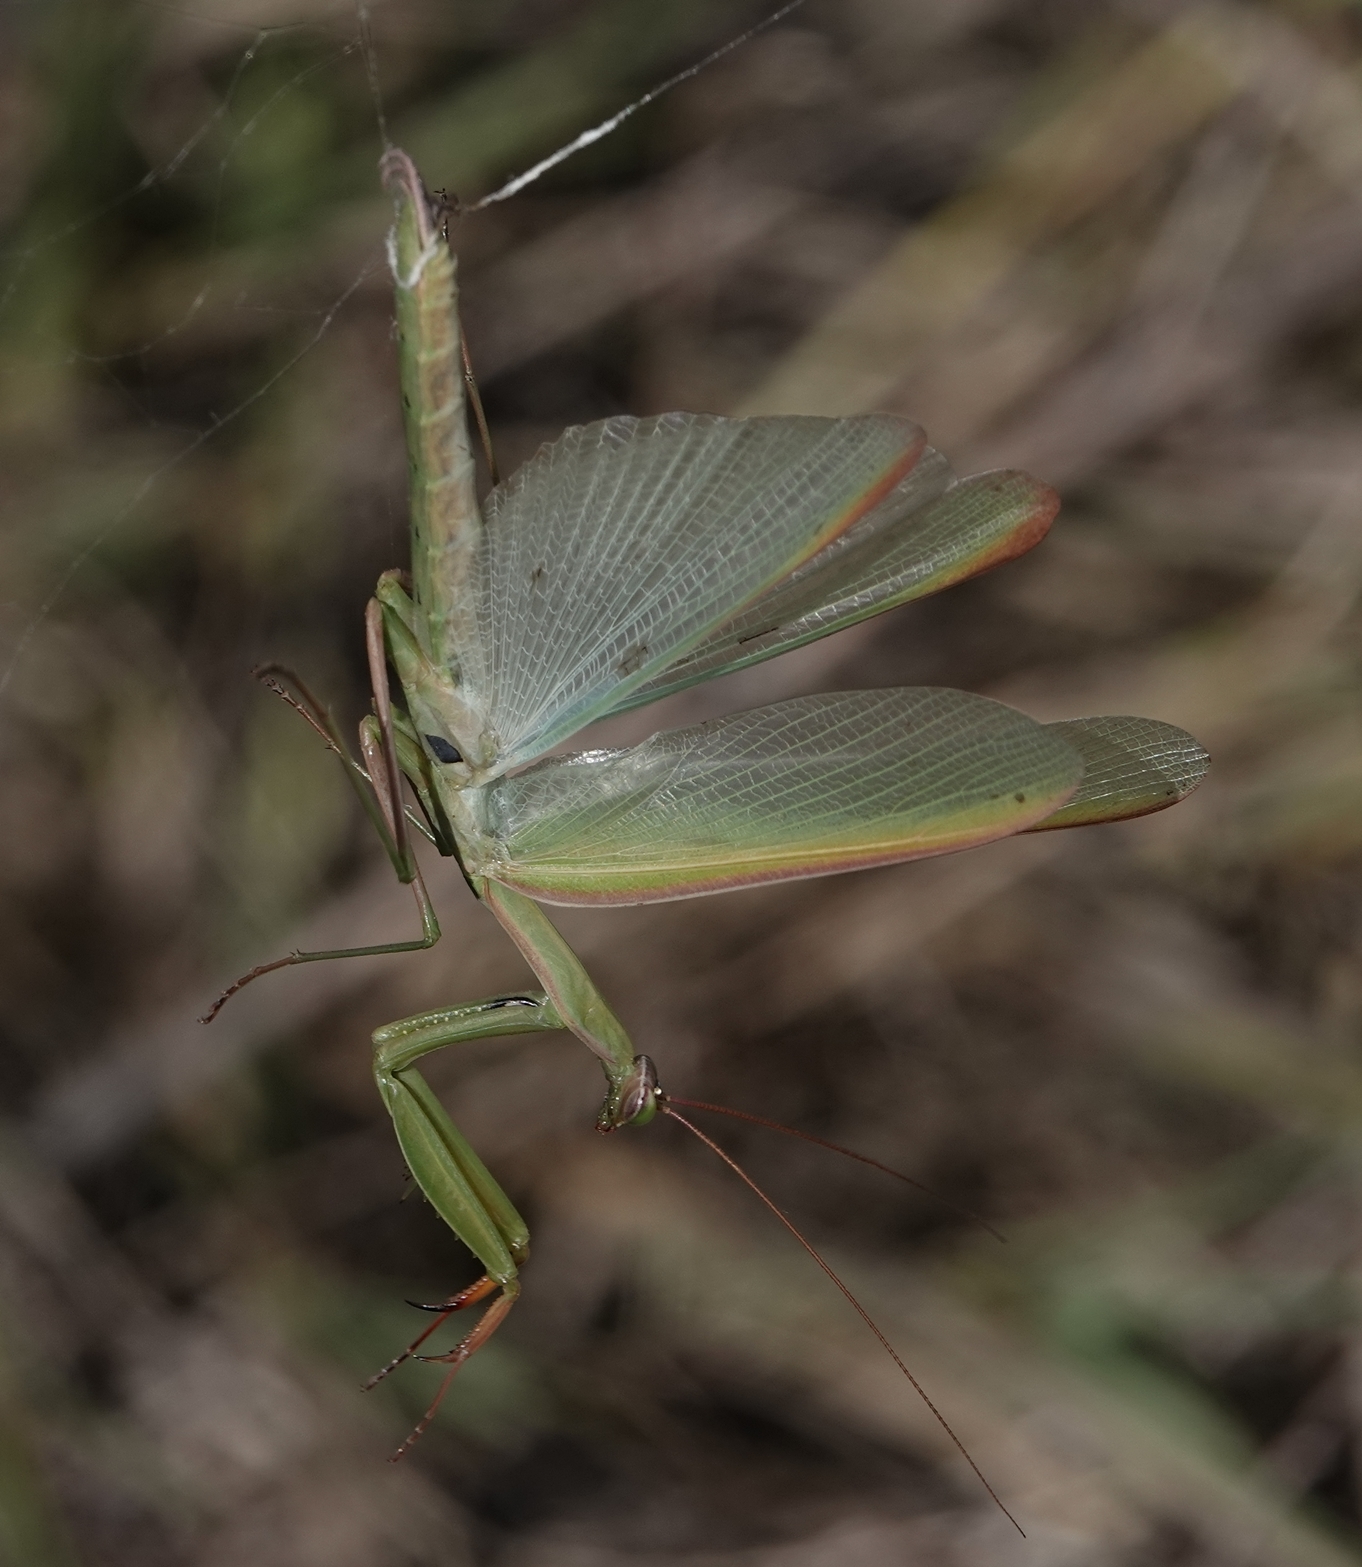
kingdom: Animalia
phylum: Arthropoda
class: Insecta
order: Mantodea
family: Mantidae
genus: Mantis
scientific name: Mantis religiosa
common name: Praying mantis
